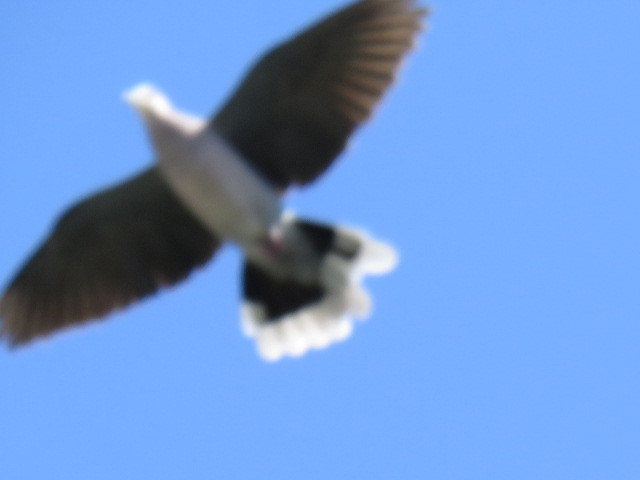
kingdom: Animalia
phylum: Chordata
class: Aves
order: Columbiformes
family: Columbidae
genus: Streptopelia
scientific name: Streptopelia semitorquata
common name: Red-eyed dove
